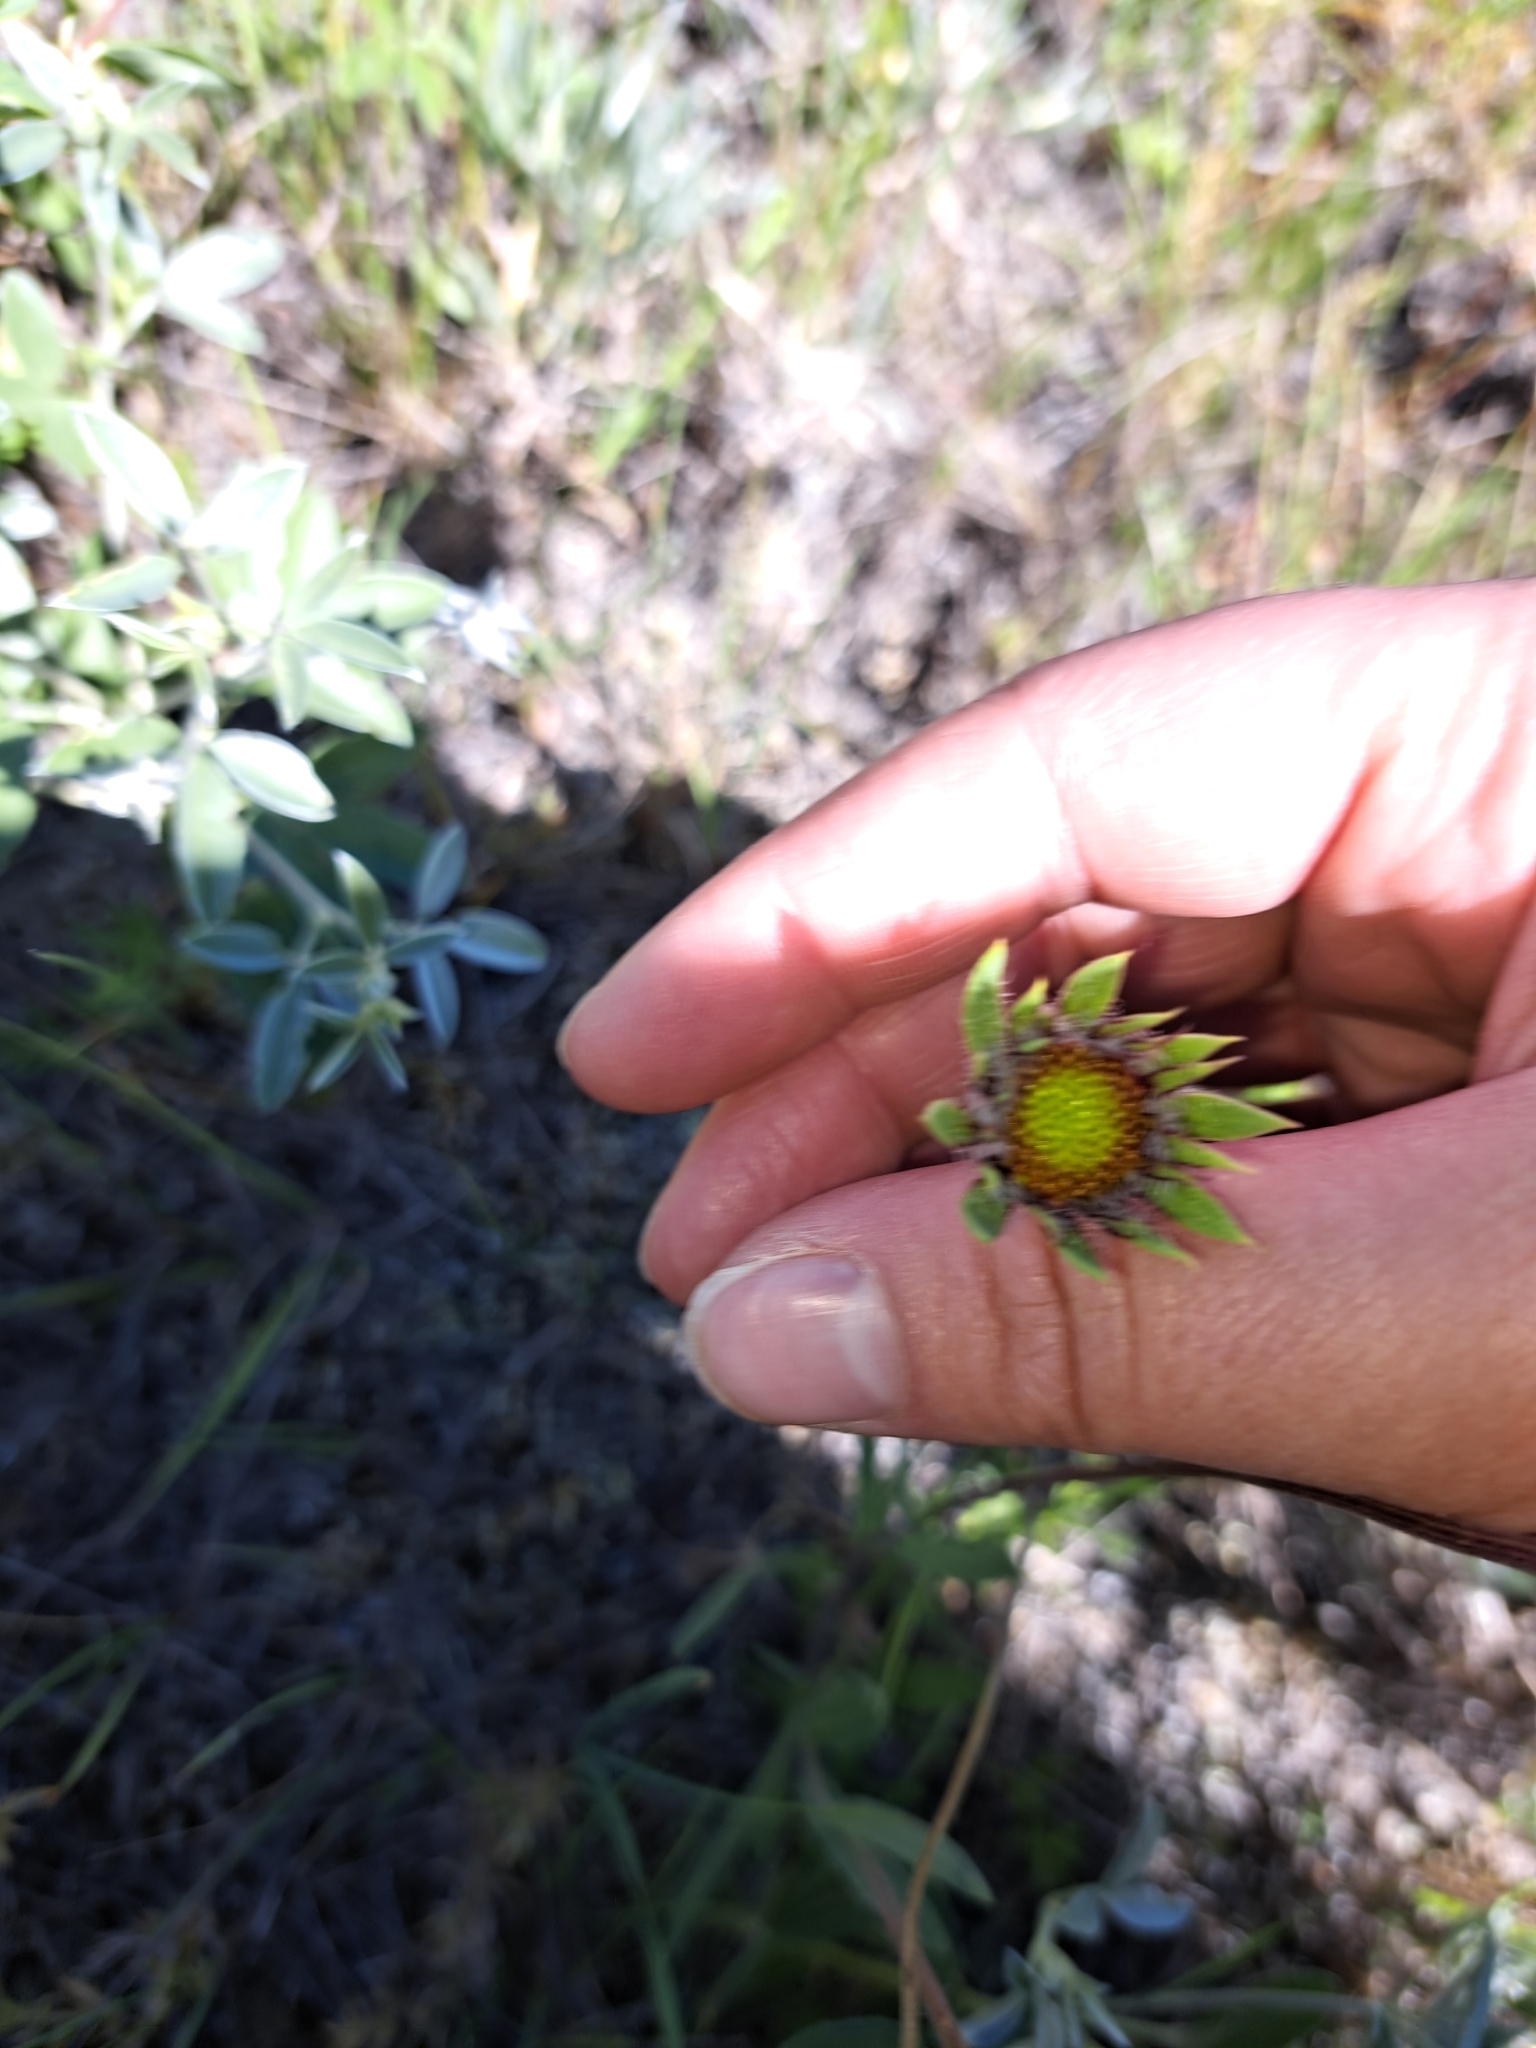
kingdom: Plantae
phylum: Tracheophyta
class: Magnoliopsida
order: Asterales
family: Asteraceae
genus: Gaillardia
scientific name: Gaillardia aristata
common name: Blanket-flower
